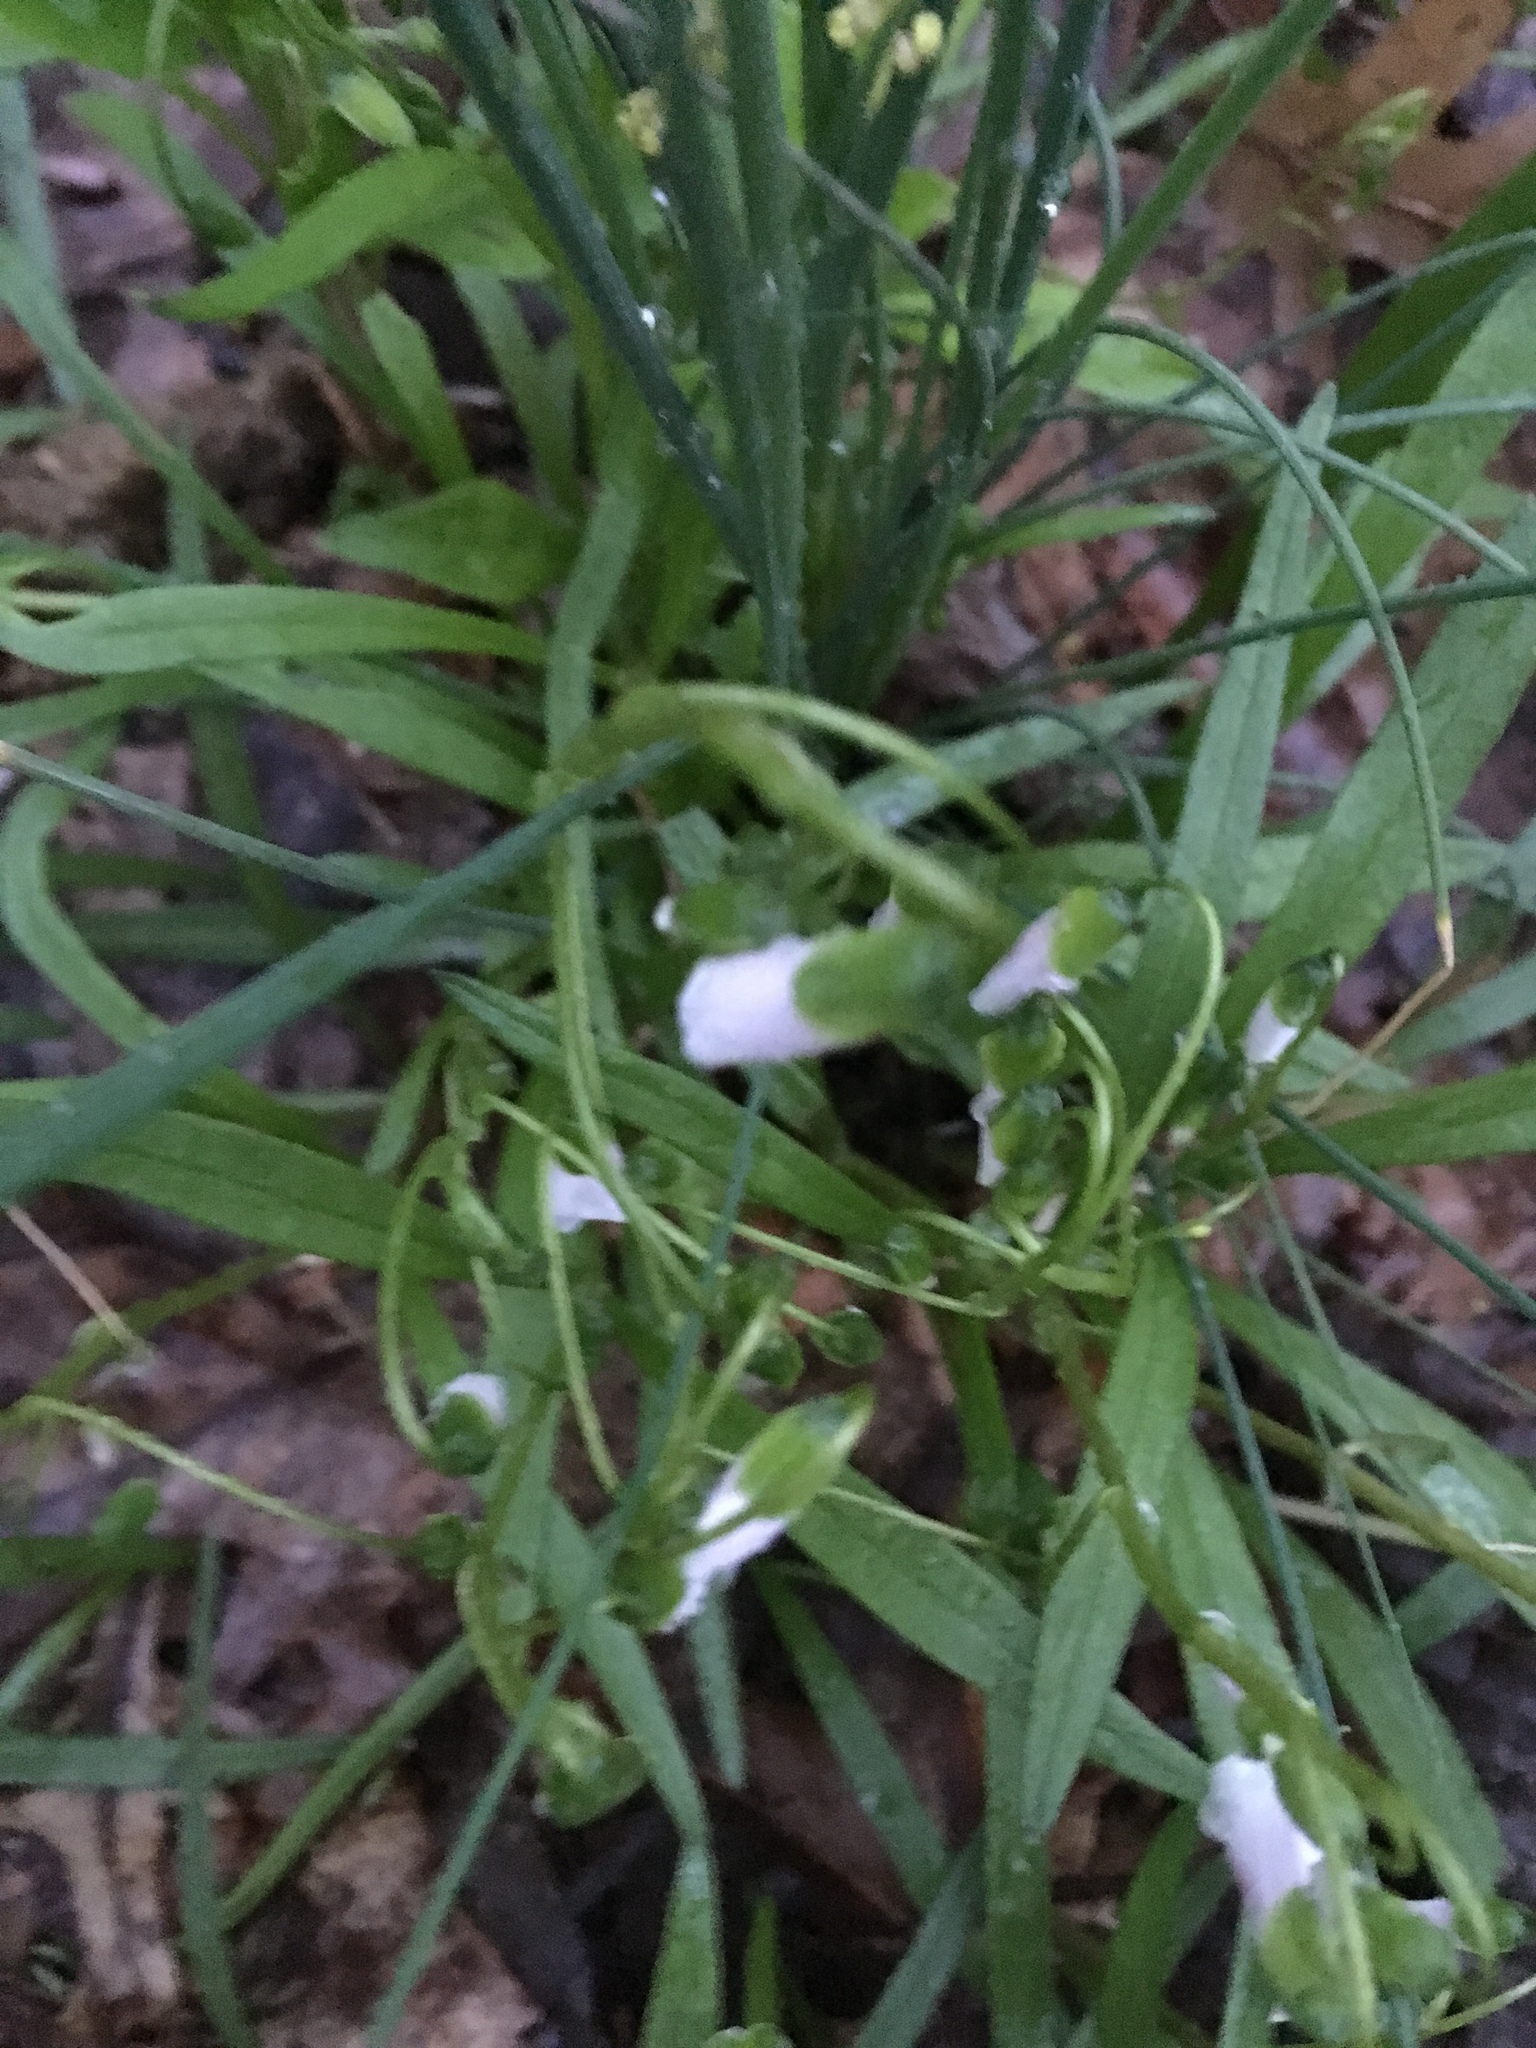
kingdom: Plantae
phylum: Tracheophyta
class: Magnoliopsida
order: Caryophyllales
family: Montiaceae
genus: Claytonia
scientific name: Claytonia virginica
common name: Virginia springbeauty
